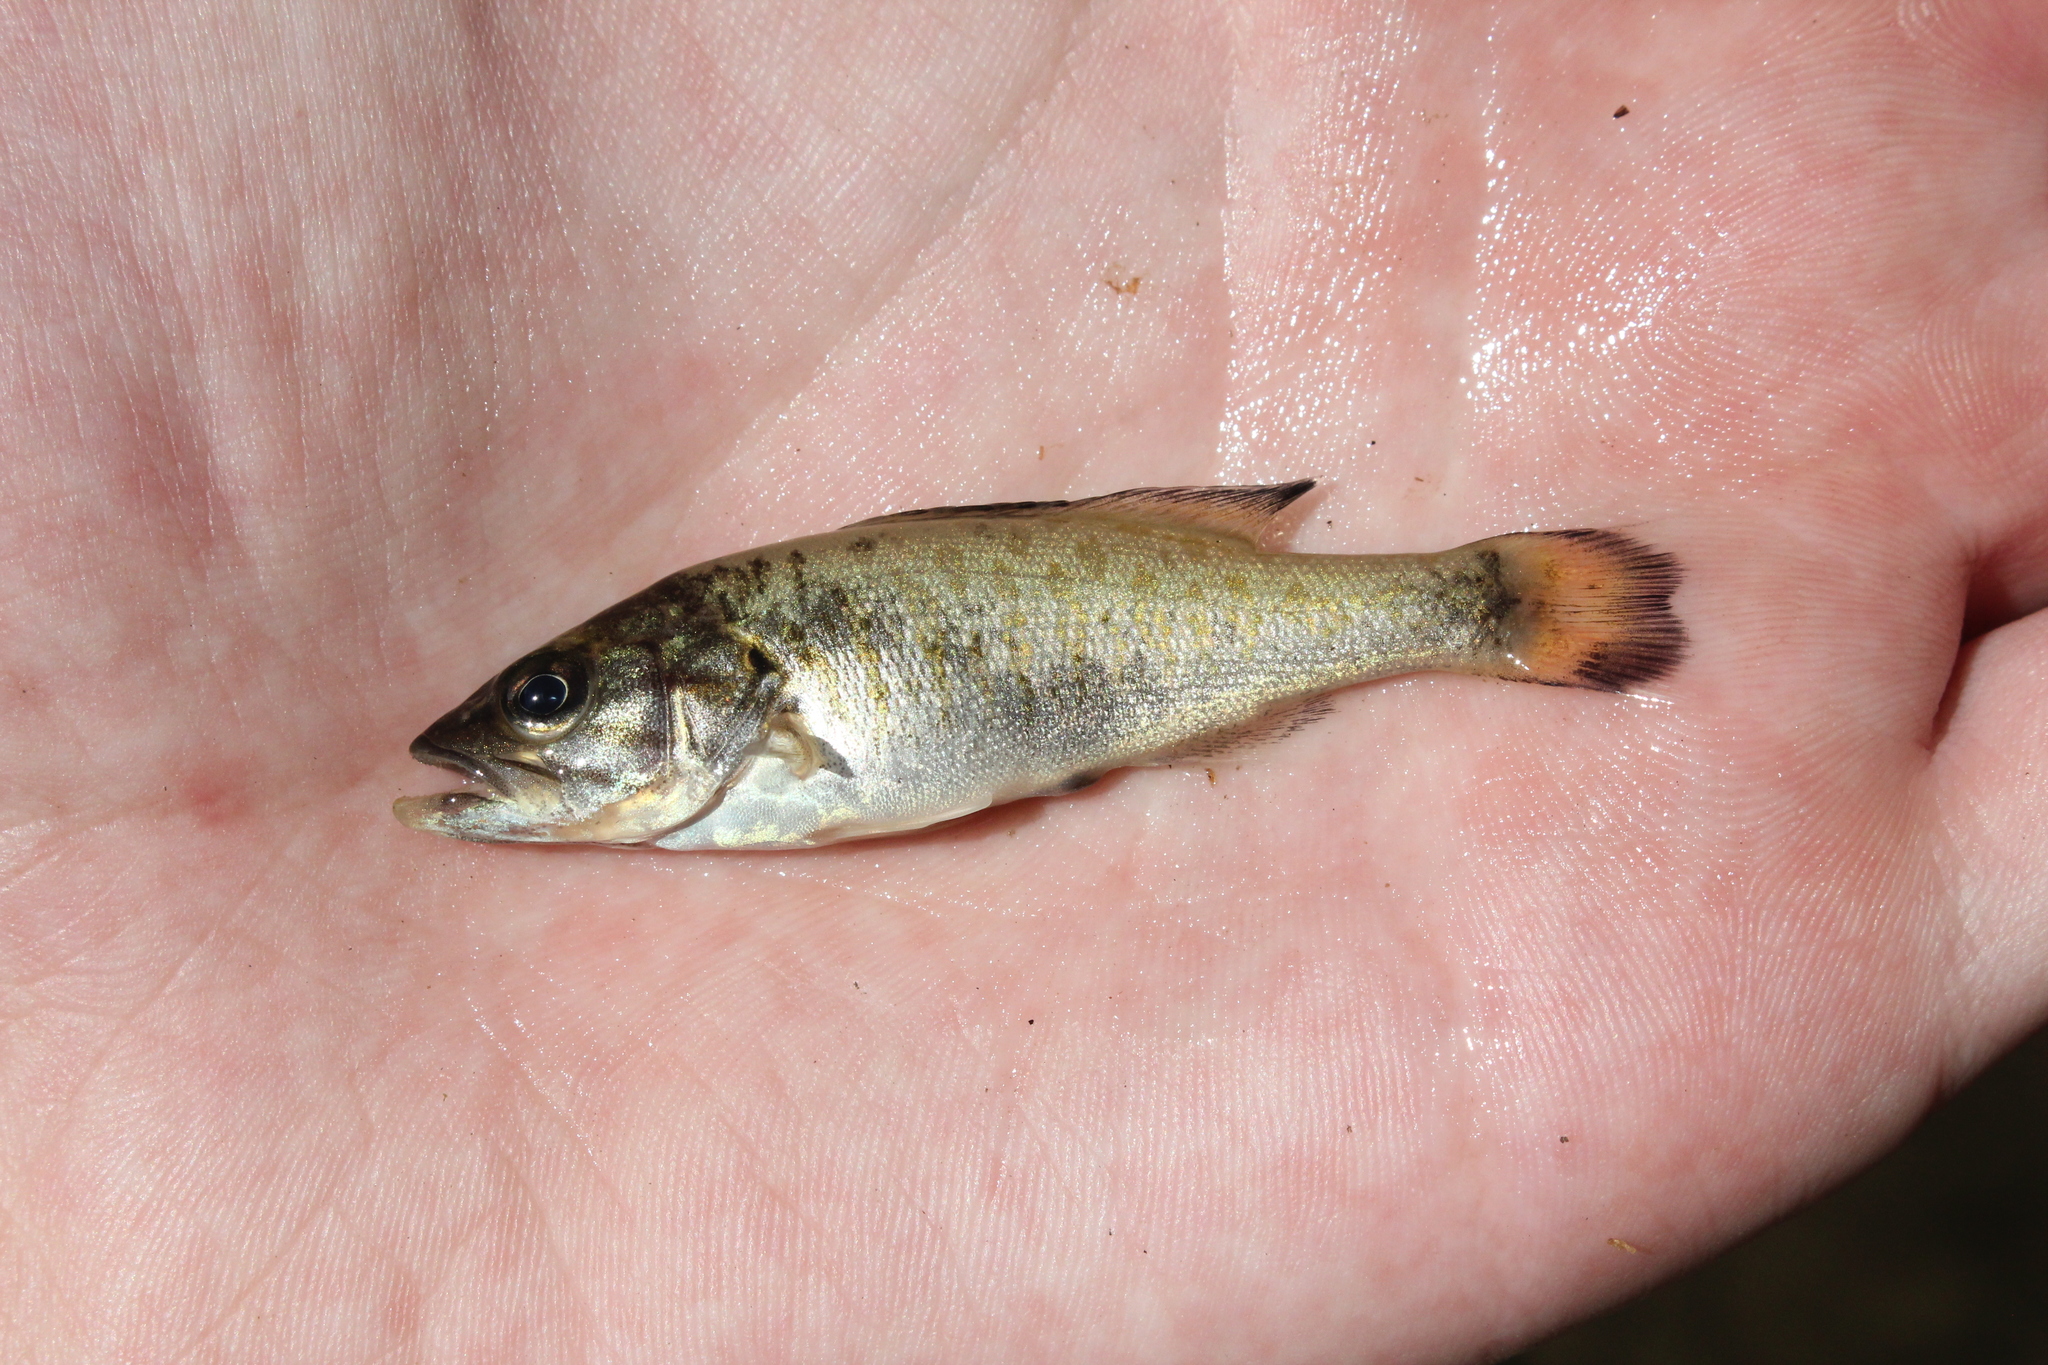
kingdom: Animalia
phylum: Chordata
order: Perciformes
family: Centrarchidae
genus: Micropterus
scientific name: Micropterus dolomieu
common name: Smallmouth bass
